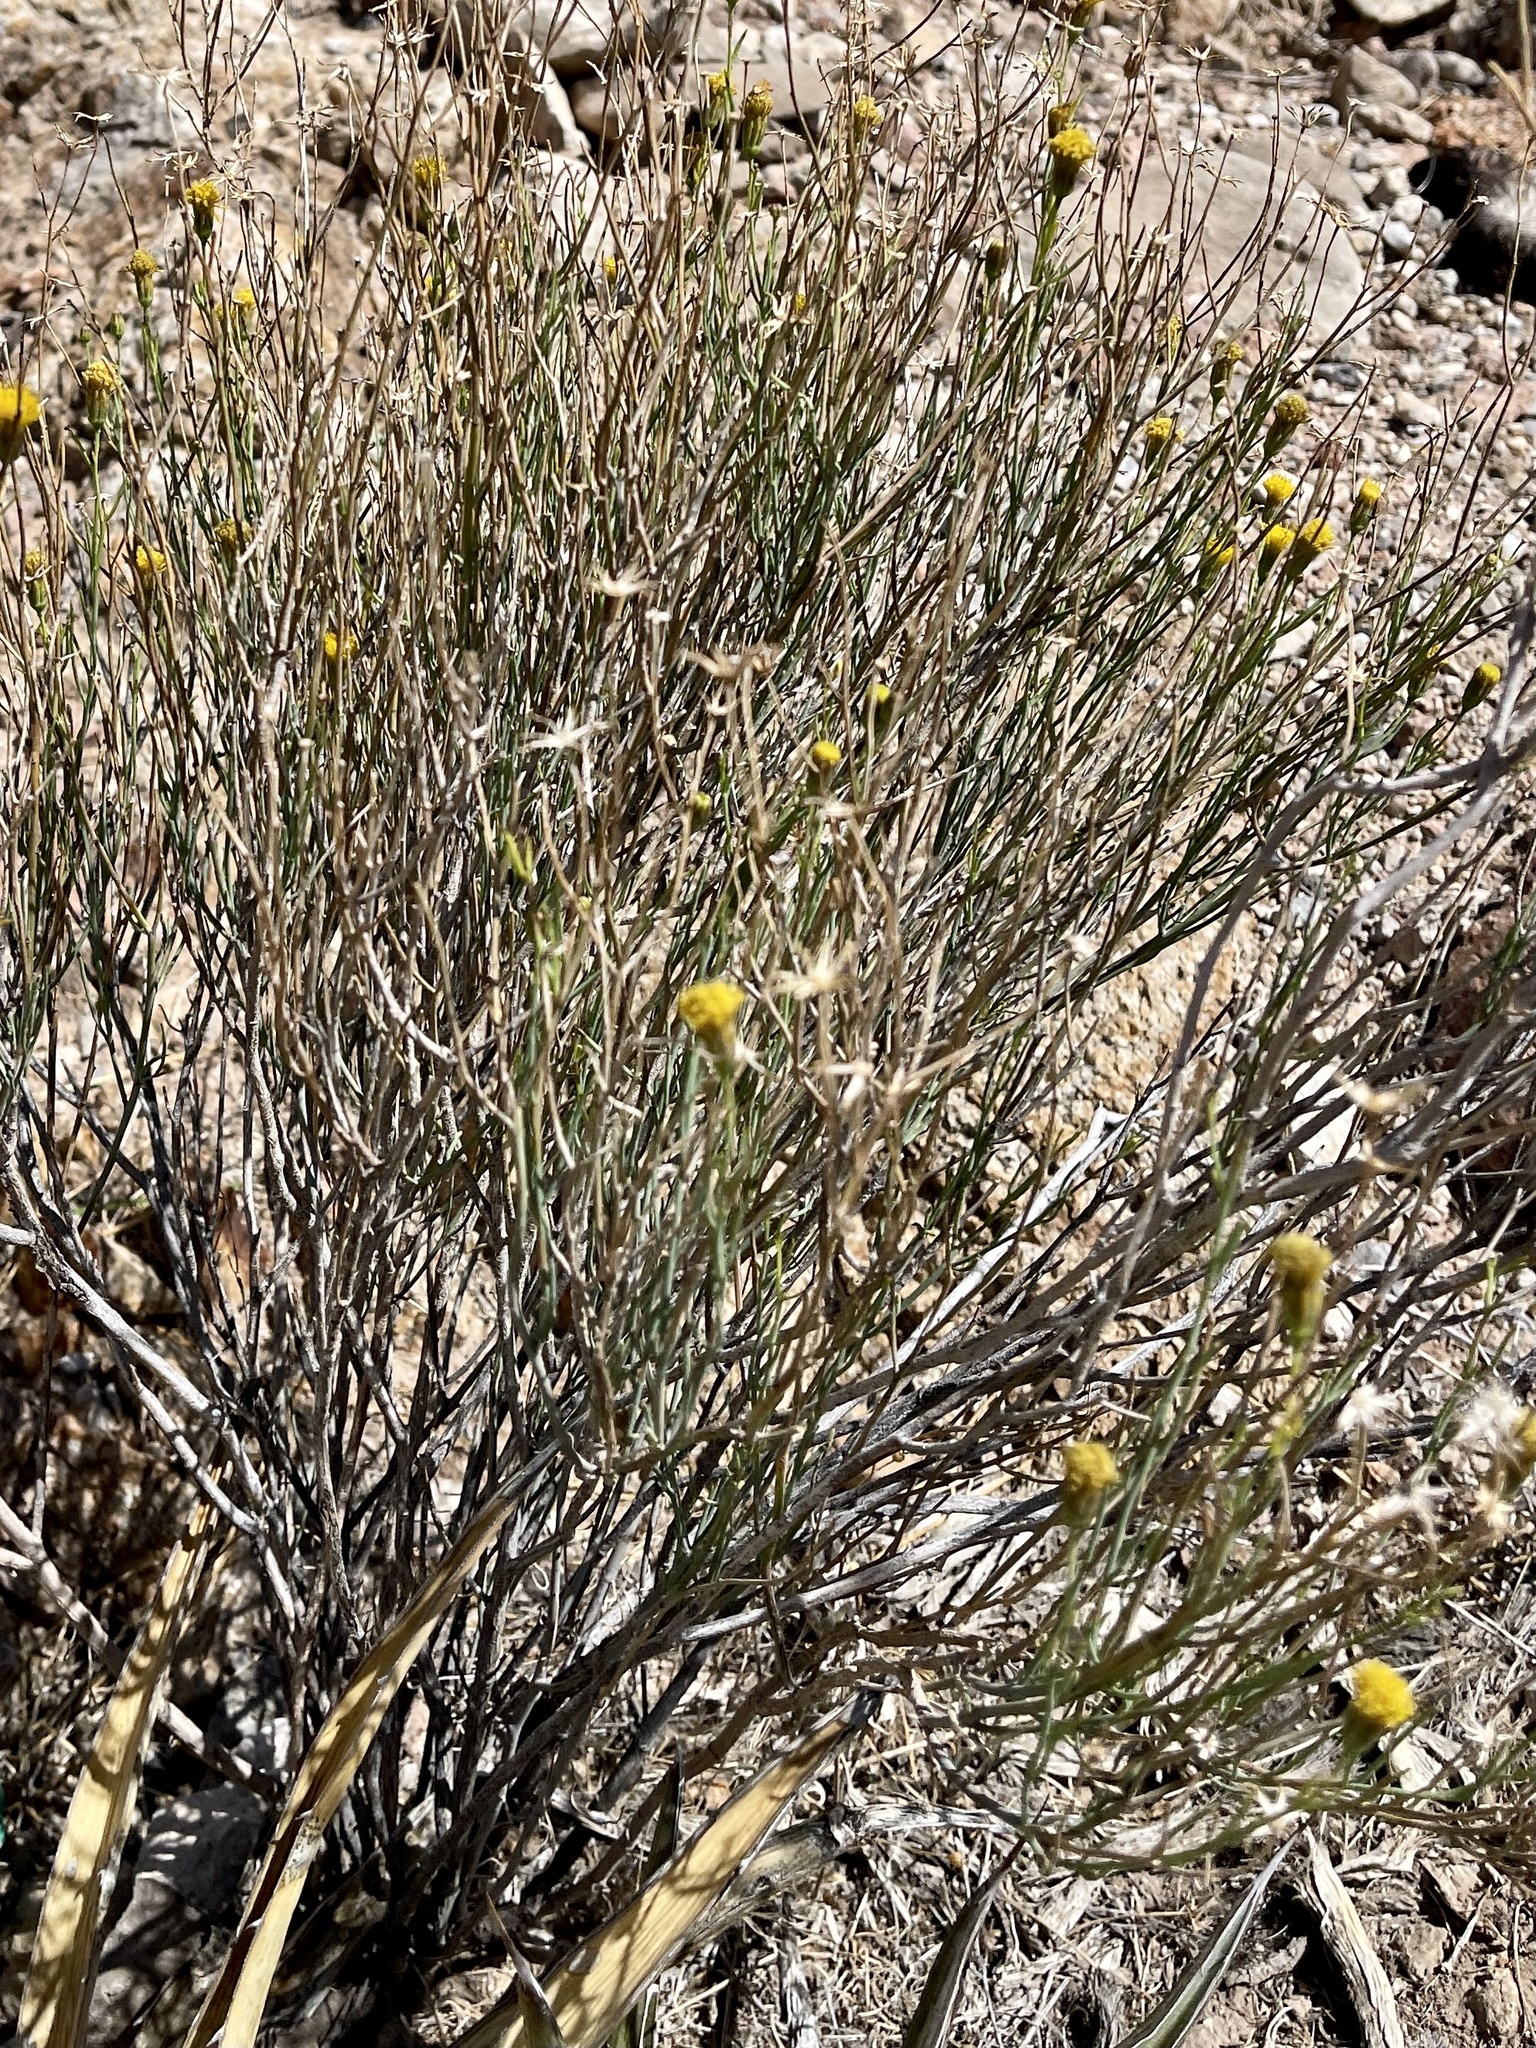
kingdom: Plantae
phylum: Tracheophyta
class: Magnoliopsida
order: Asterales
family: Asteraceae
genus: Porophyllum
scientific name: Porophyllum scoparium
